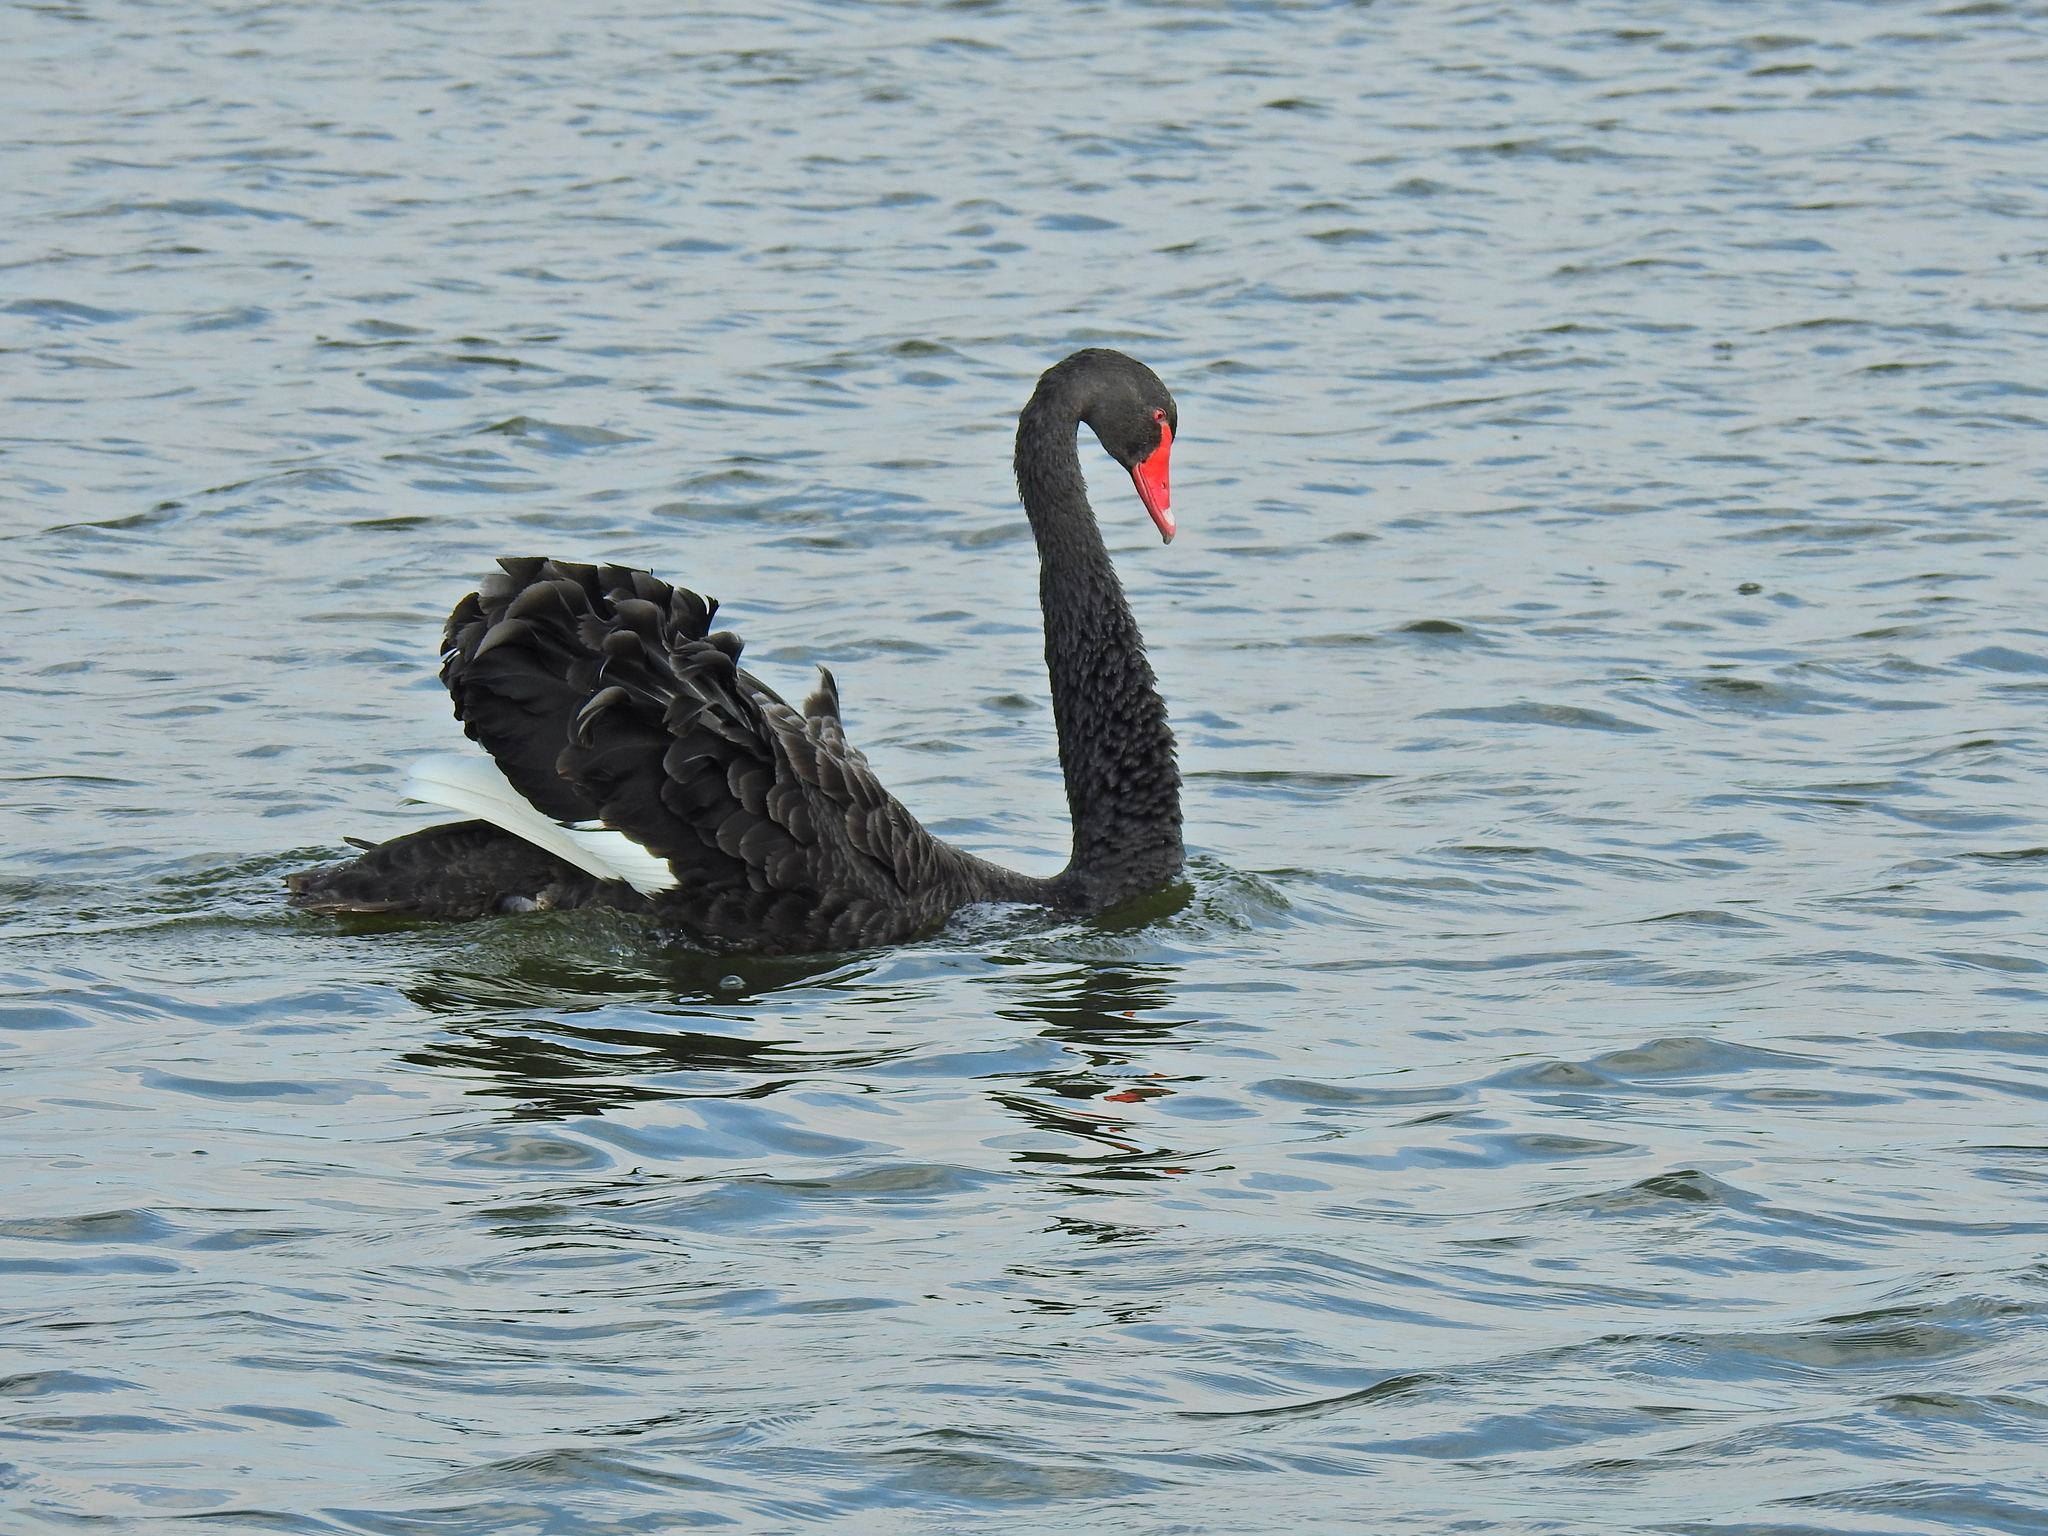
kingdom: Animalia
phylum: Chordata
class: Aves
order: Anseriformes
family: Anatidae
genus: Cygnus
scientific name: Cygnus atratus
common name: Black swan
